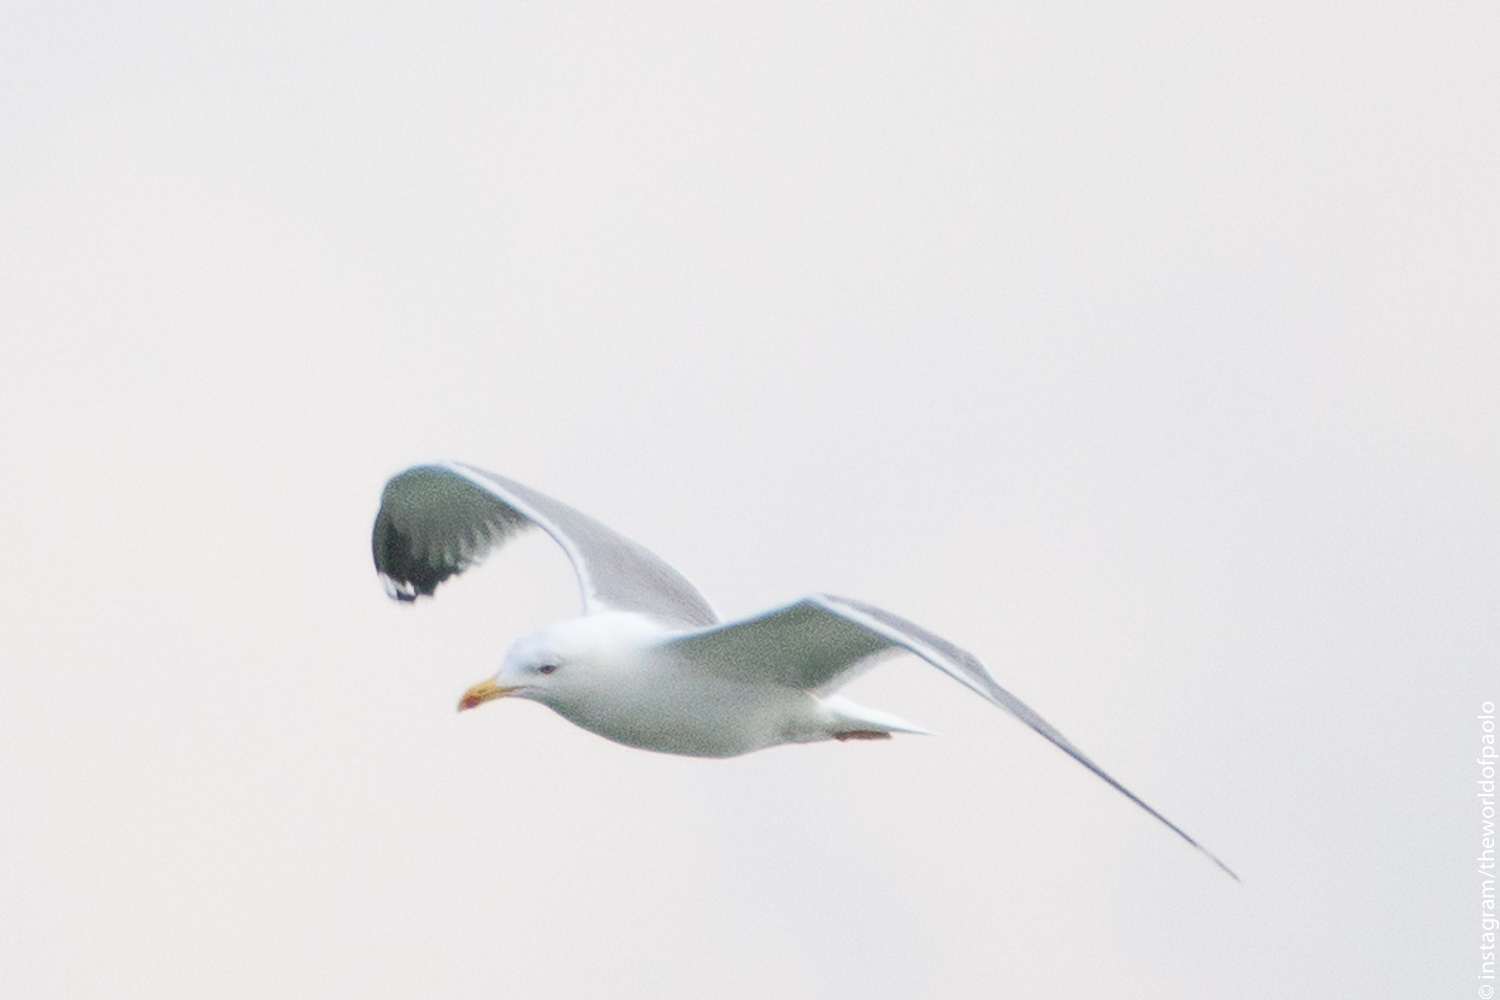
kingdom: Animalia
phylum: Chordata
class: Aves
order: Charadriiformes
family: Laridae
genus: Larus
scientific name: Larus michahellis
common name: Yellow-legged gull
